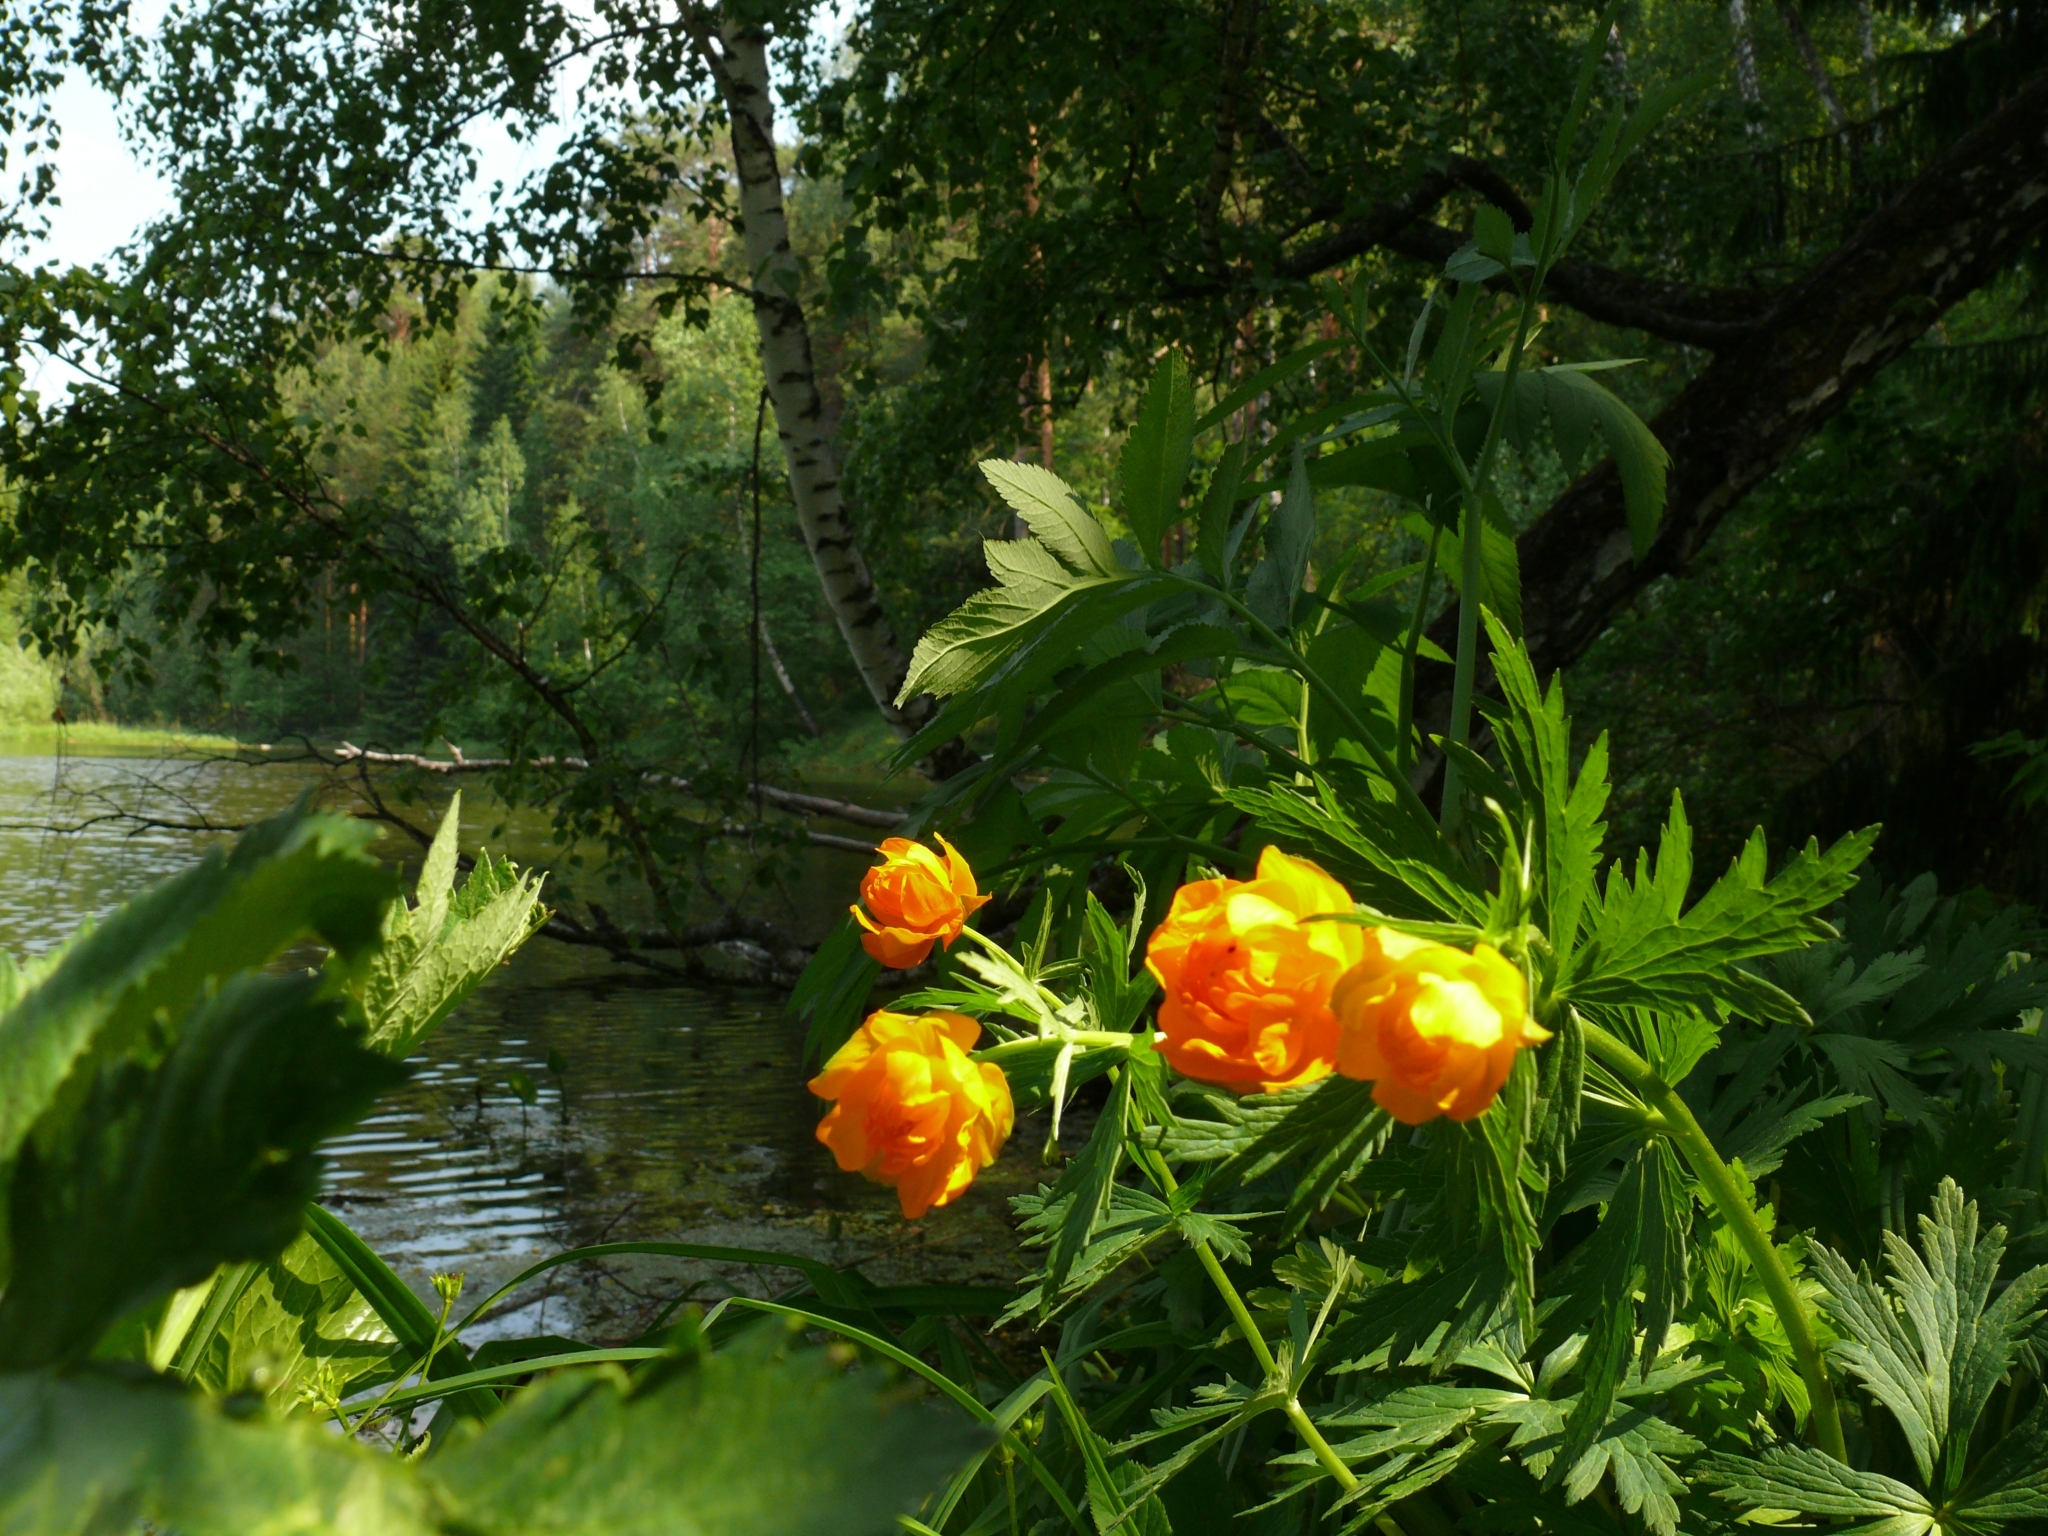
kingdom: Plantae
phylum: Tracheophyta
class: Magnoliopsida
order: Ranunculales
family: Ranunculaceae
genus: Trollius
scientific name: Trollius asiaticus
